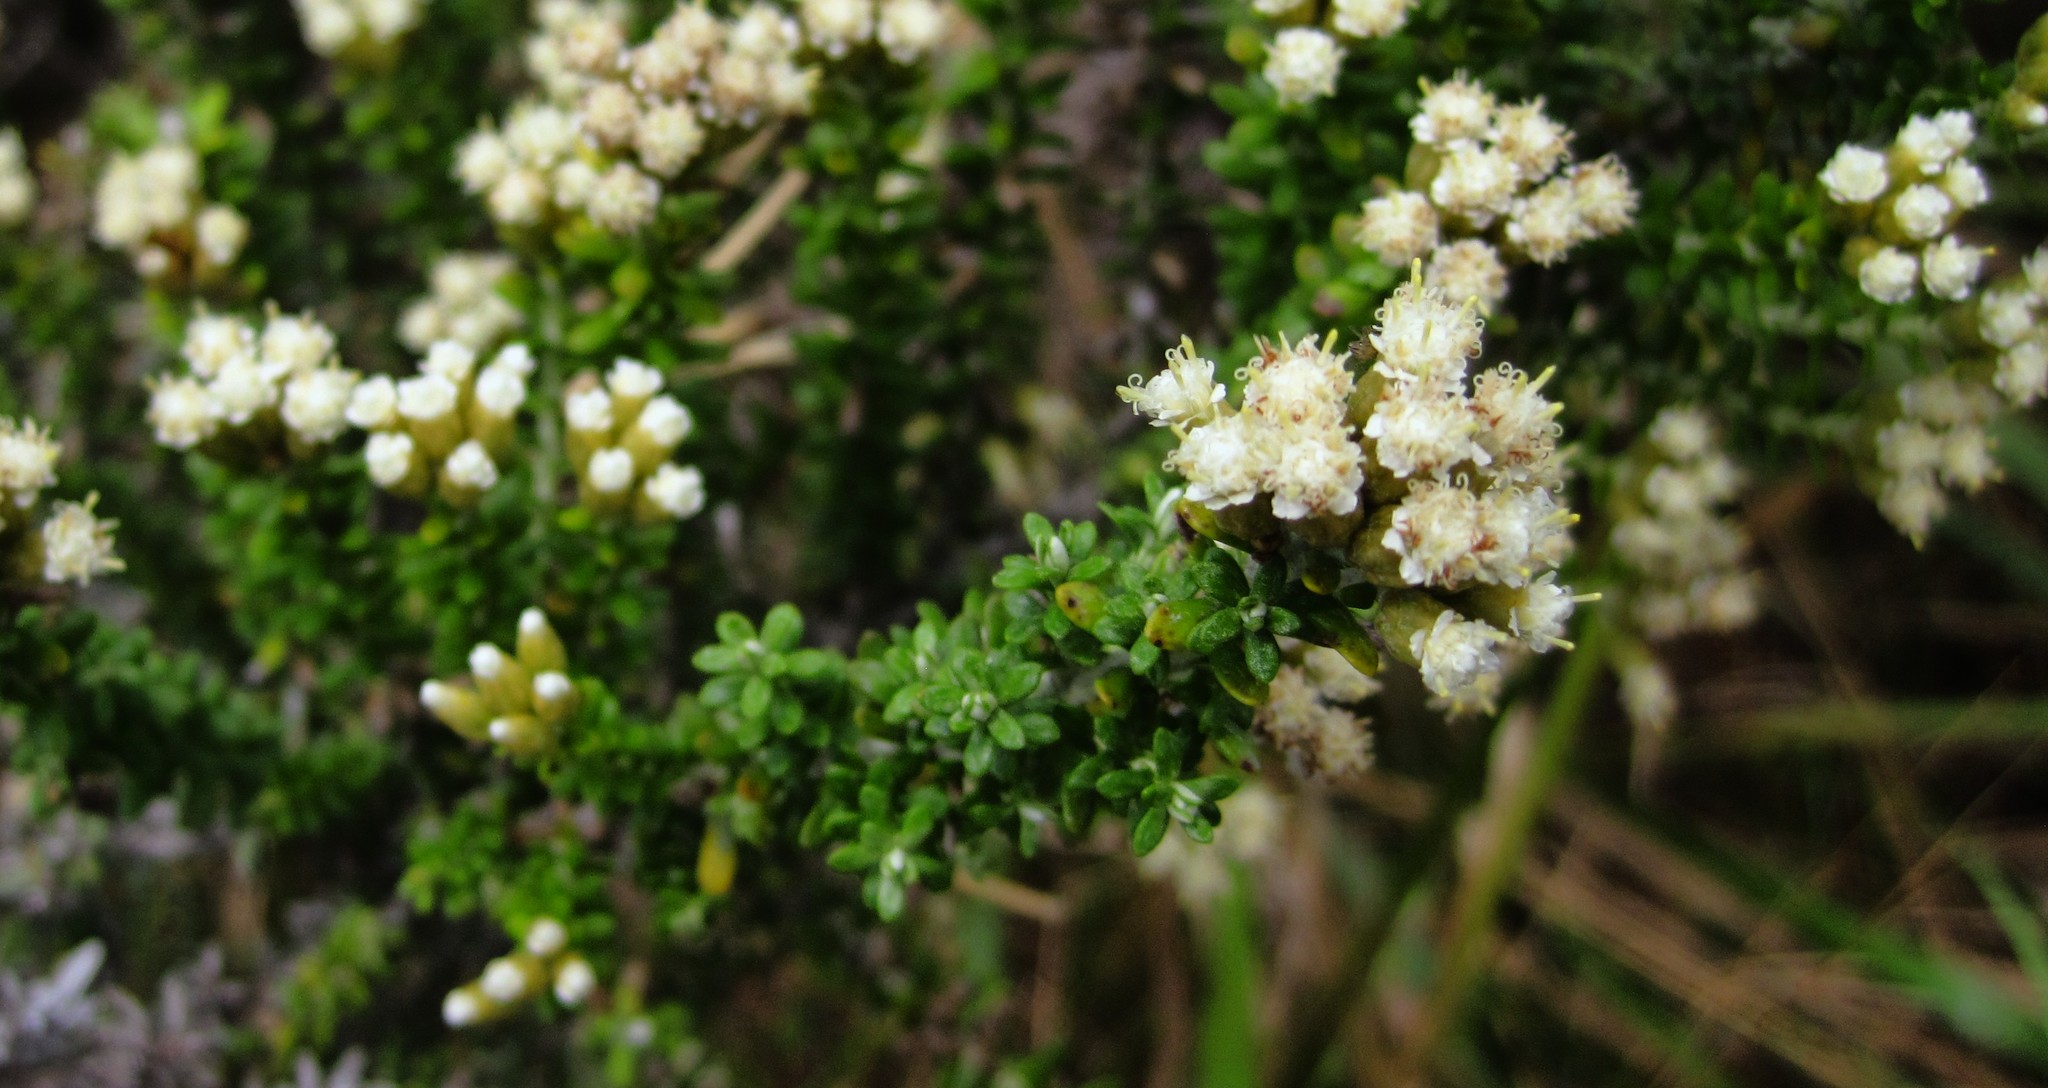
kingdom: Plantae
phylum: Tracheophyta
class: Magnoliopsida
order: Asterales
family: Asteraceae
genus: Ozothamnus
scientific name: Ozothamnus leptophyllus
